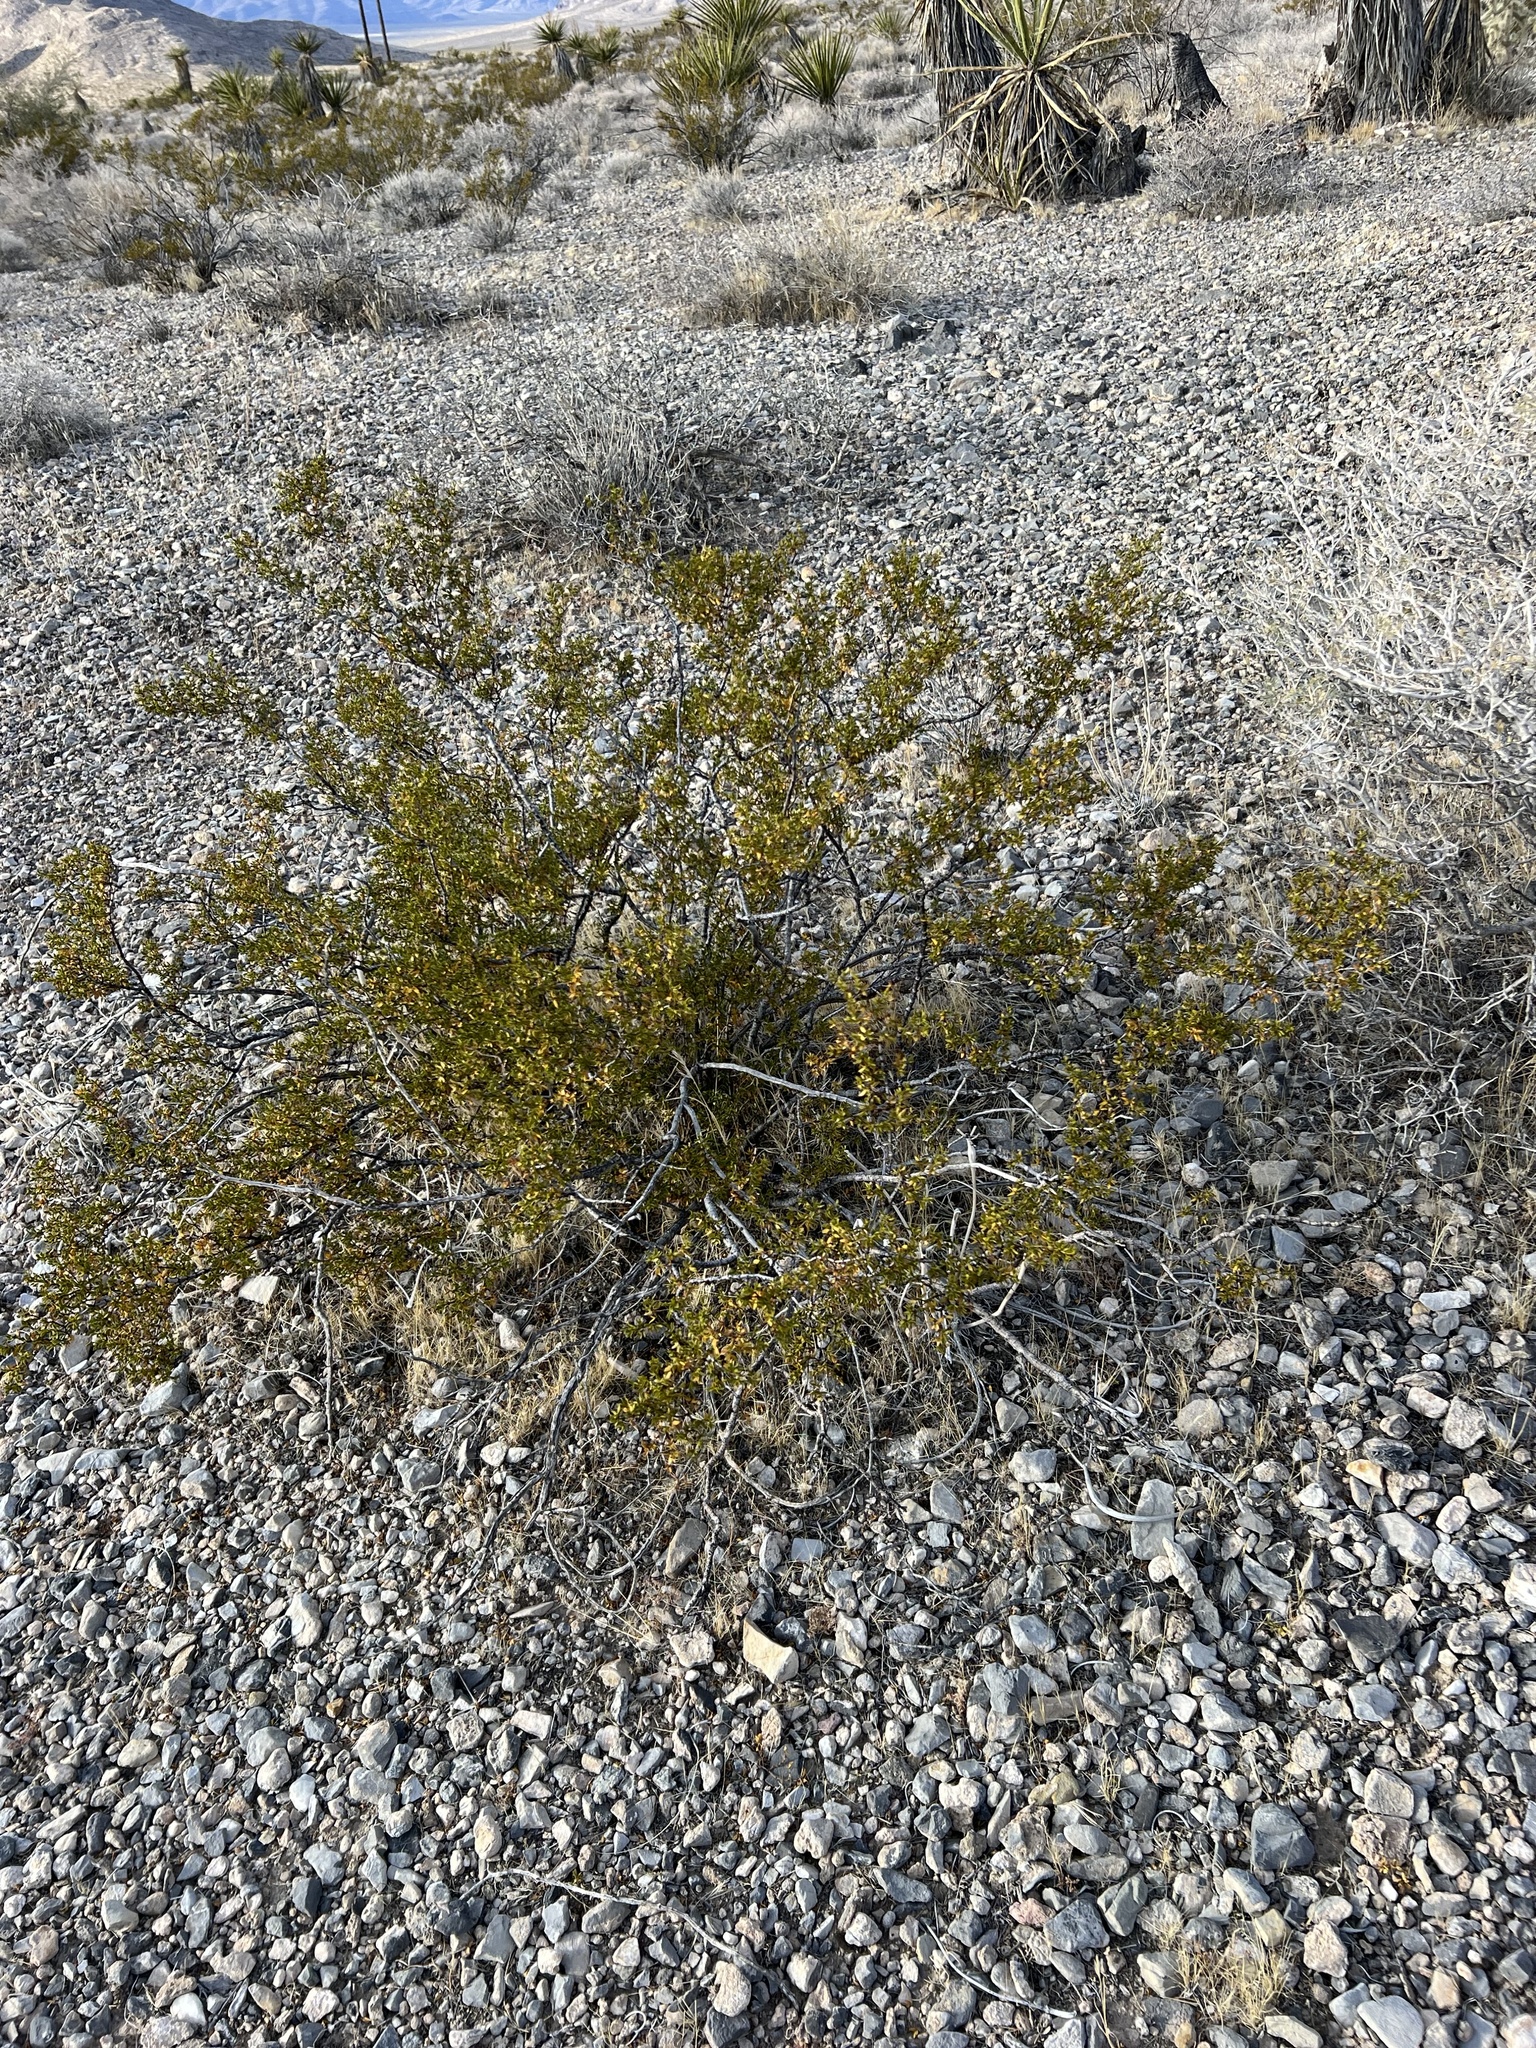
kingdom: Plantae
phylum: Tracheophyta
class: Magnoliopsida
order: Zygophyllales
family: Zygophyllaceae
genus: Larrea
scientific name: Larrea tridentata
